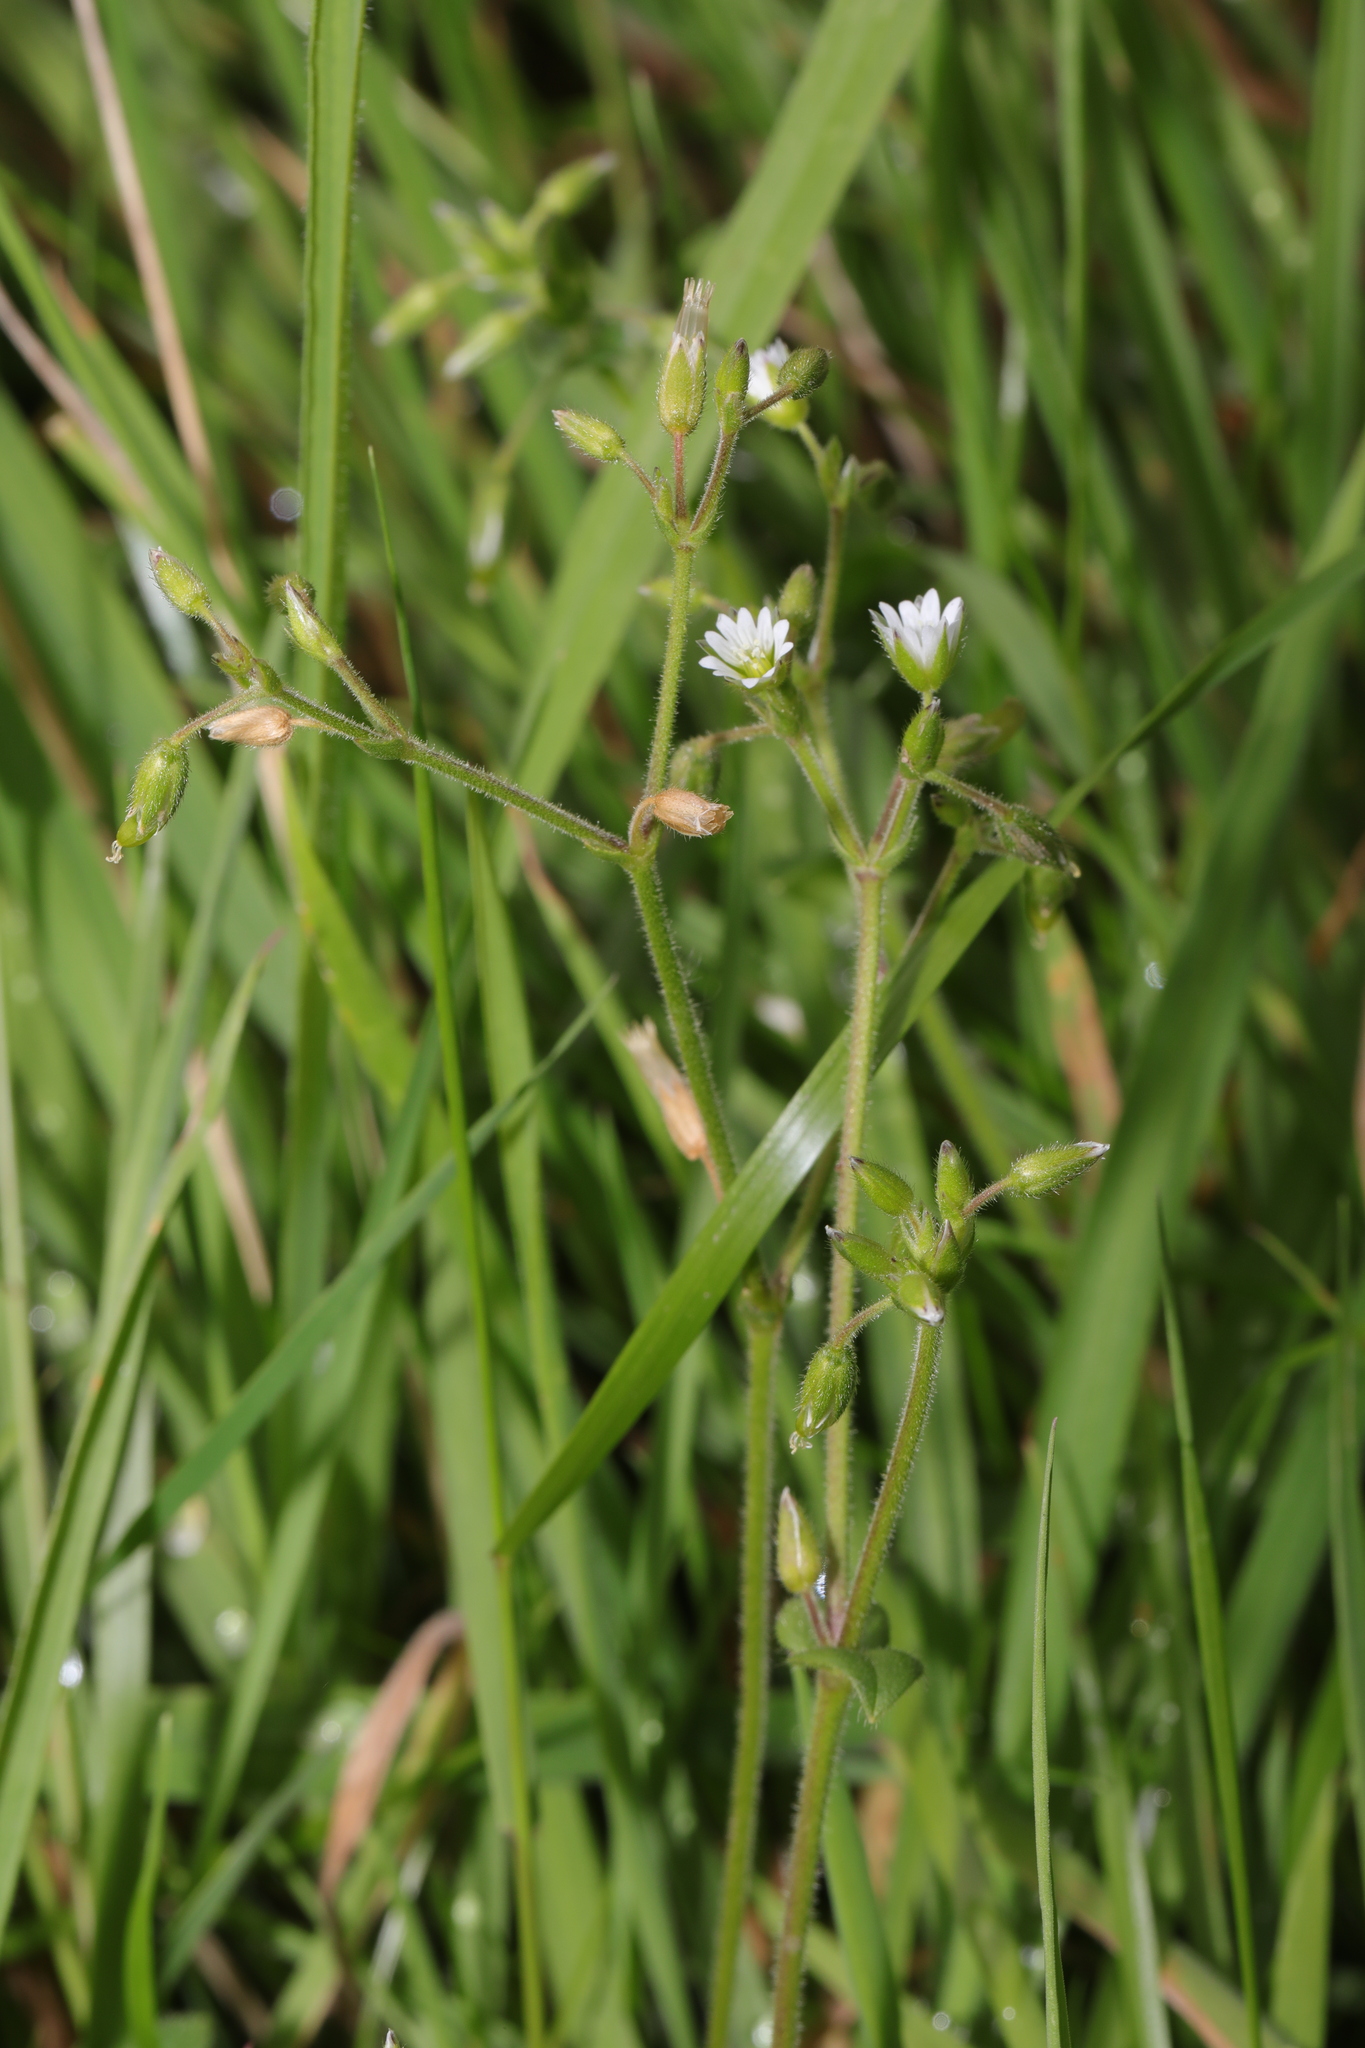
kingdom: Plantae
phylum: Tracheophyta
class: Magnoliopsida
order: Caryophyllales
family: Caryophyllaceae
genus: Cerastium
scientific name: Cerastium fontanum
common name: Common mouse-ear
